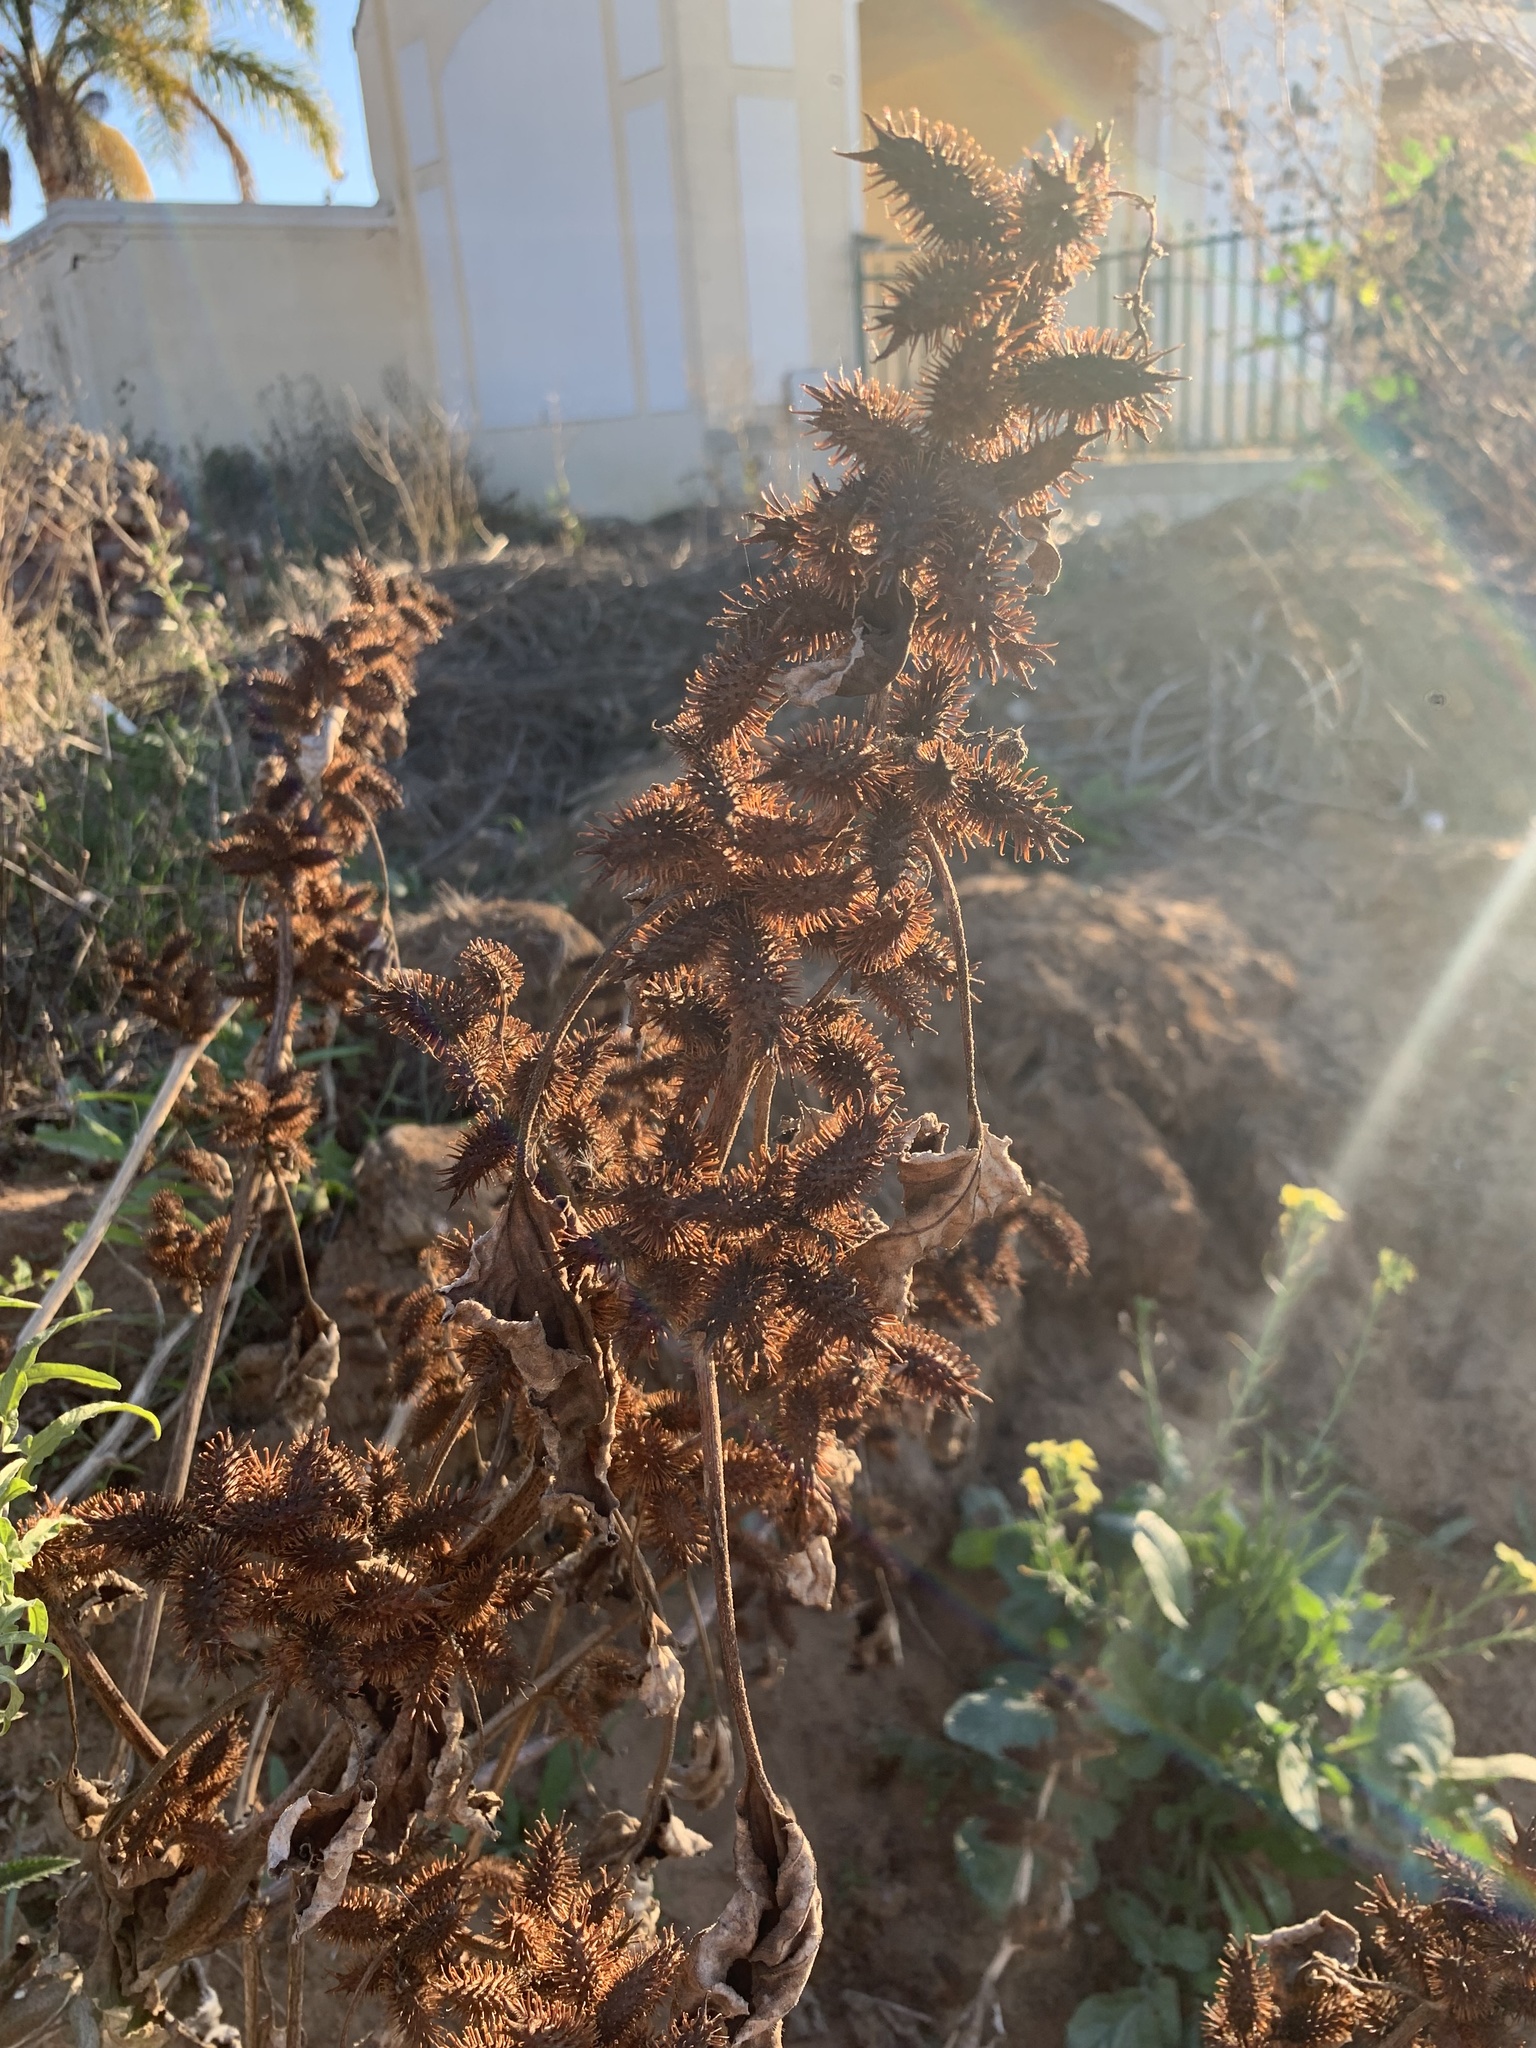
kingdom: Plantae
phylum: Tracheophyta
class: Magnoliopsida
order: Asterales
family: Asteraceae
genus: Xanthium
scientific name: Xanthium strumarium
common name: Rough cocklebur
